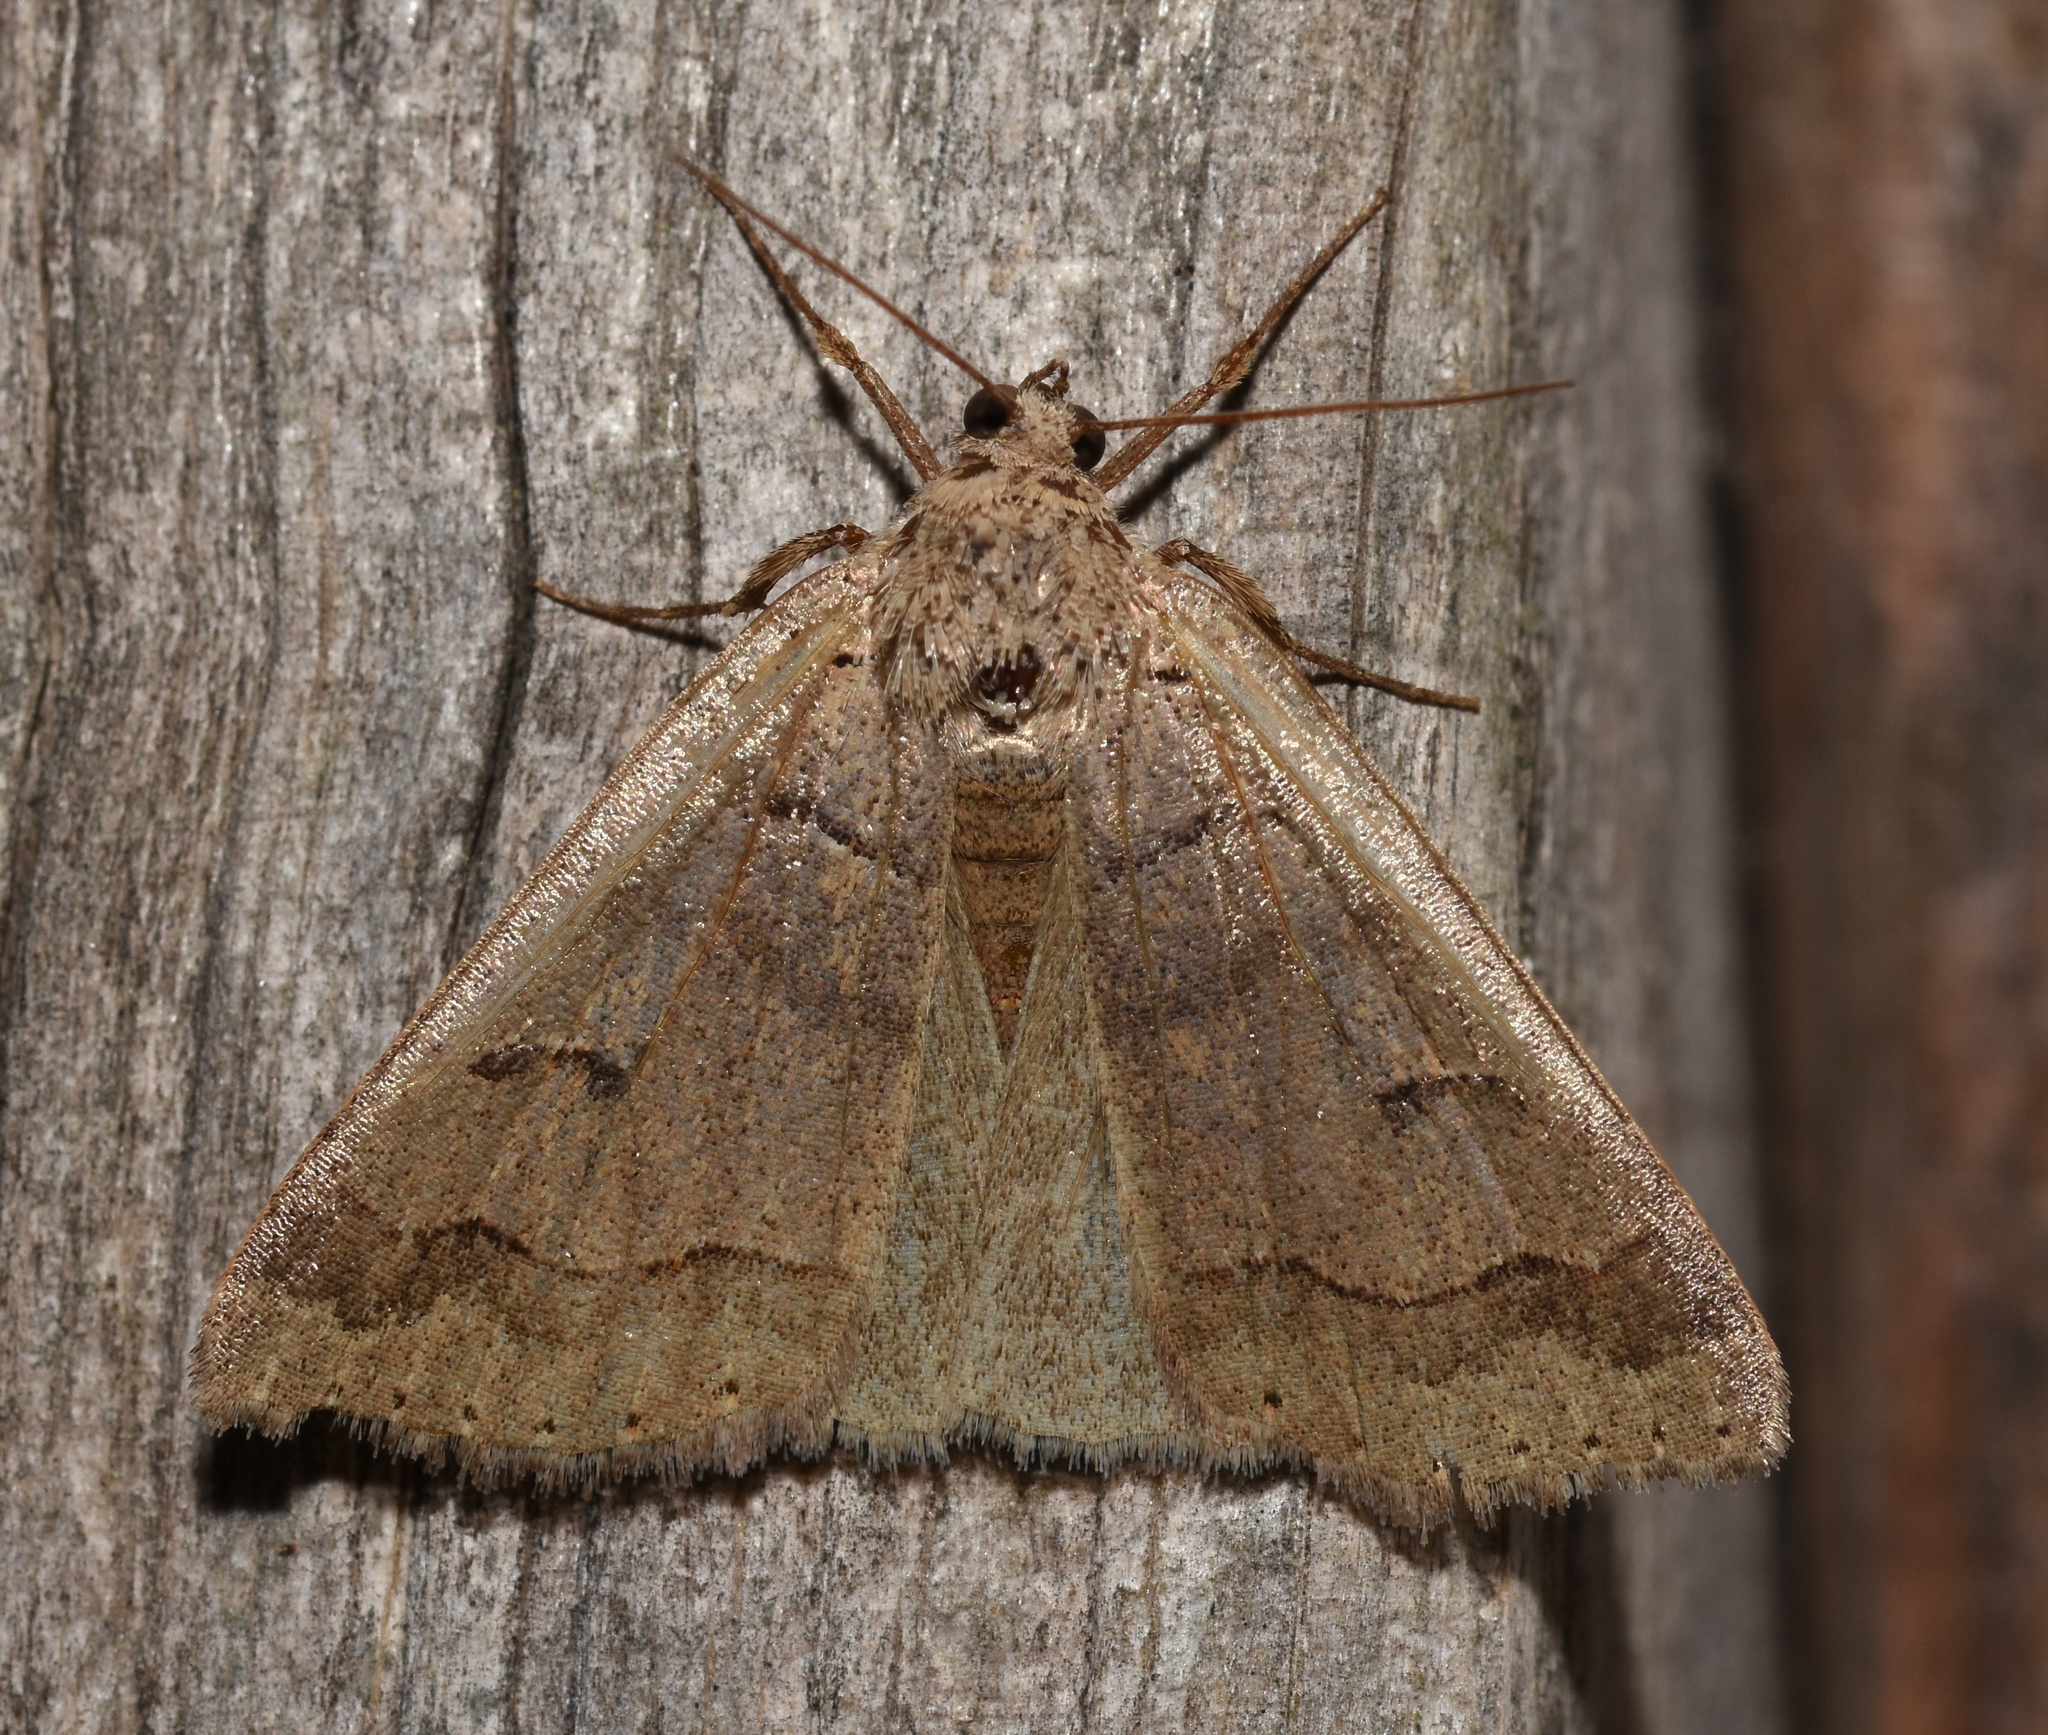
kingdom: Animalia
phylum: Arthropoda
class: Insecta
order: Lepidoptera
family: Erebidae
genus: Phoberia
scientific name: Phoberia atomaris
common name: Common oak moth
